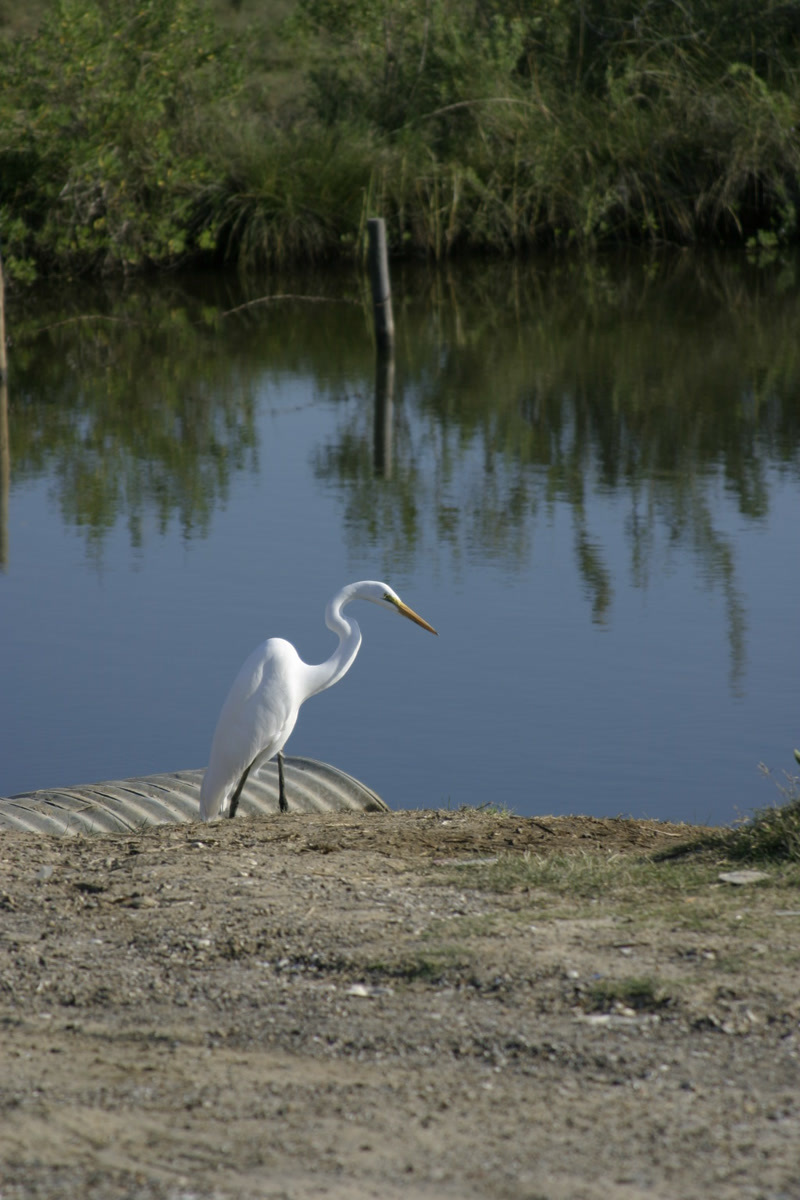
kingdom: Animalia
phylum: Chordata
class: Aves
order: Pelecaniformes
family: Ardeidae
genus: Ardea
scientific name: Ardea alba
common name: Great egret
